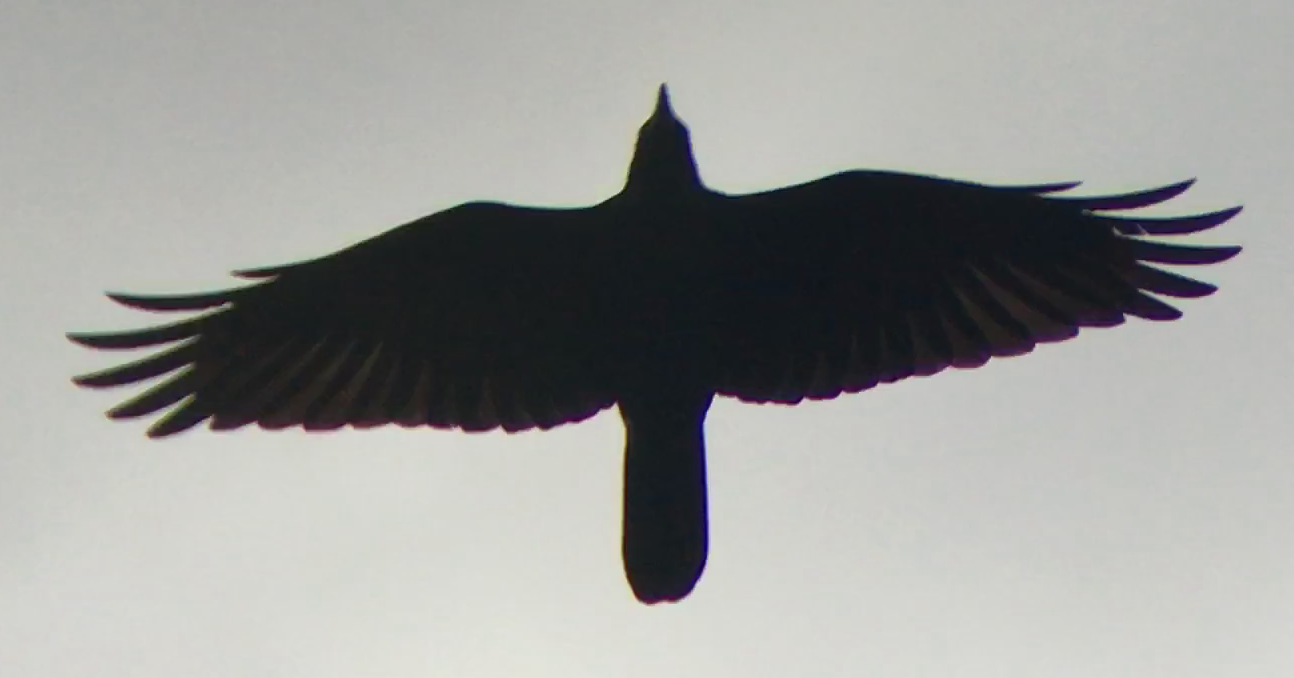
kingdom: Animalia
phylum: Chordata
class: Aves
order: Passeriformes
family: Corvidae
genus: Corvus
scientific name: Corvus mellori
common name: Little raven
